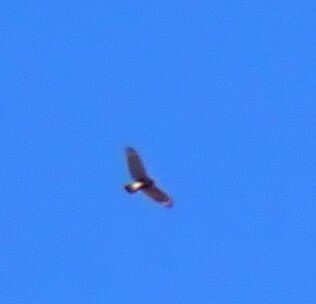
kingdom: Animalia
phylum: Chordata
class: Aves
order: Accipitriformes
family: Accipitridae
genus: Buteo
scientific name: Buteo lineatus
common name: Red-shouldered hawk
